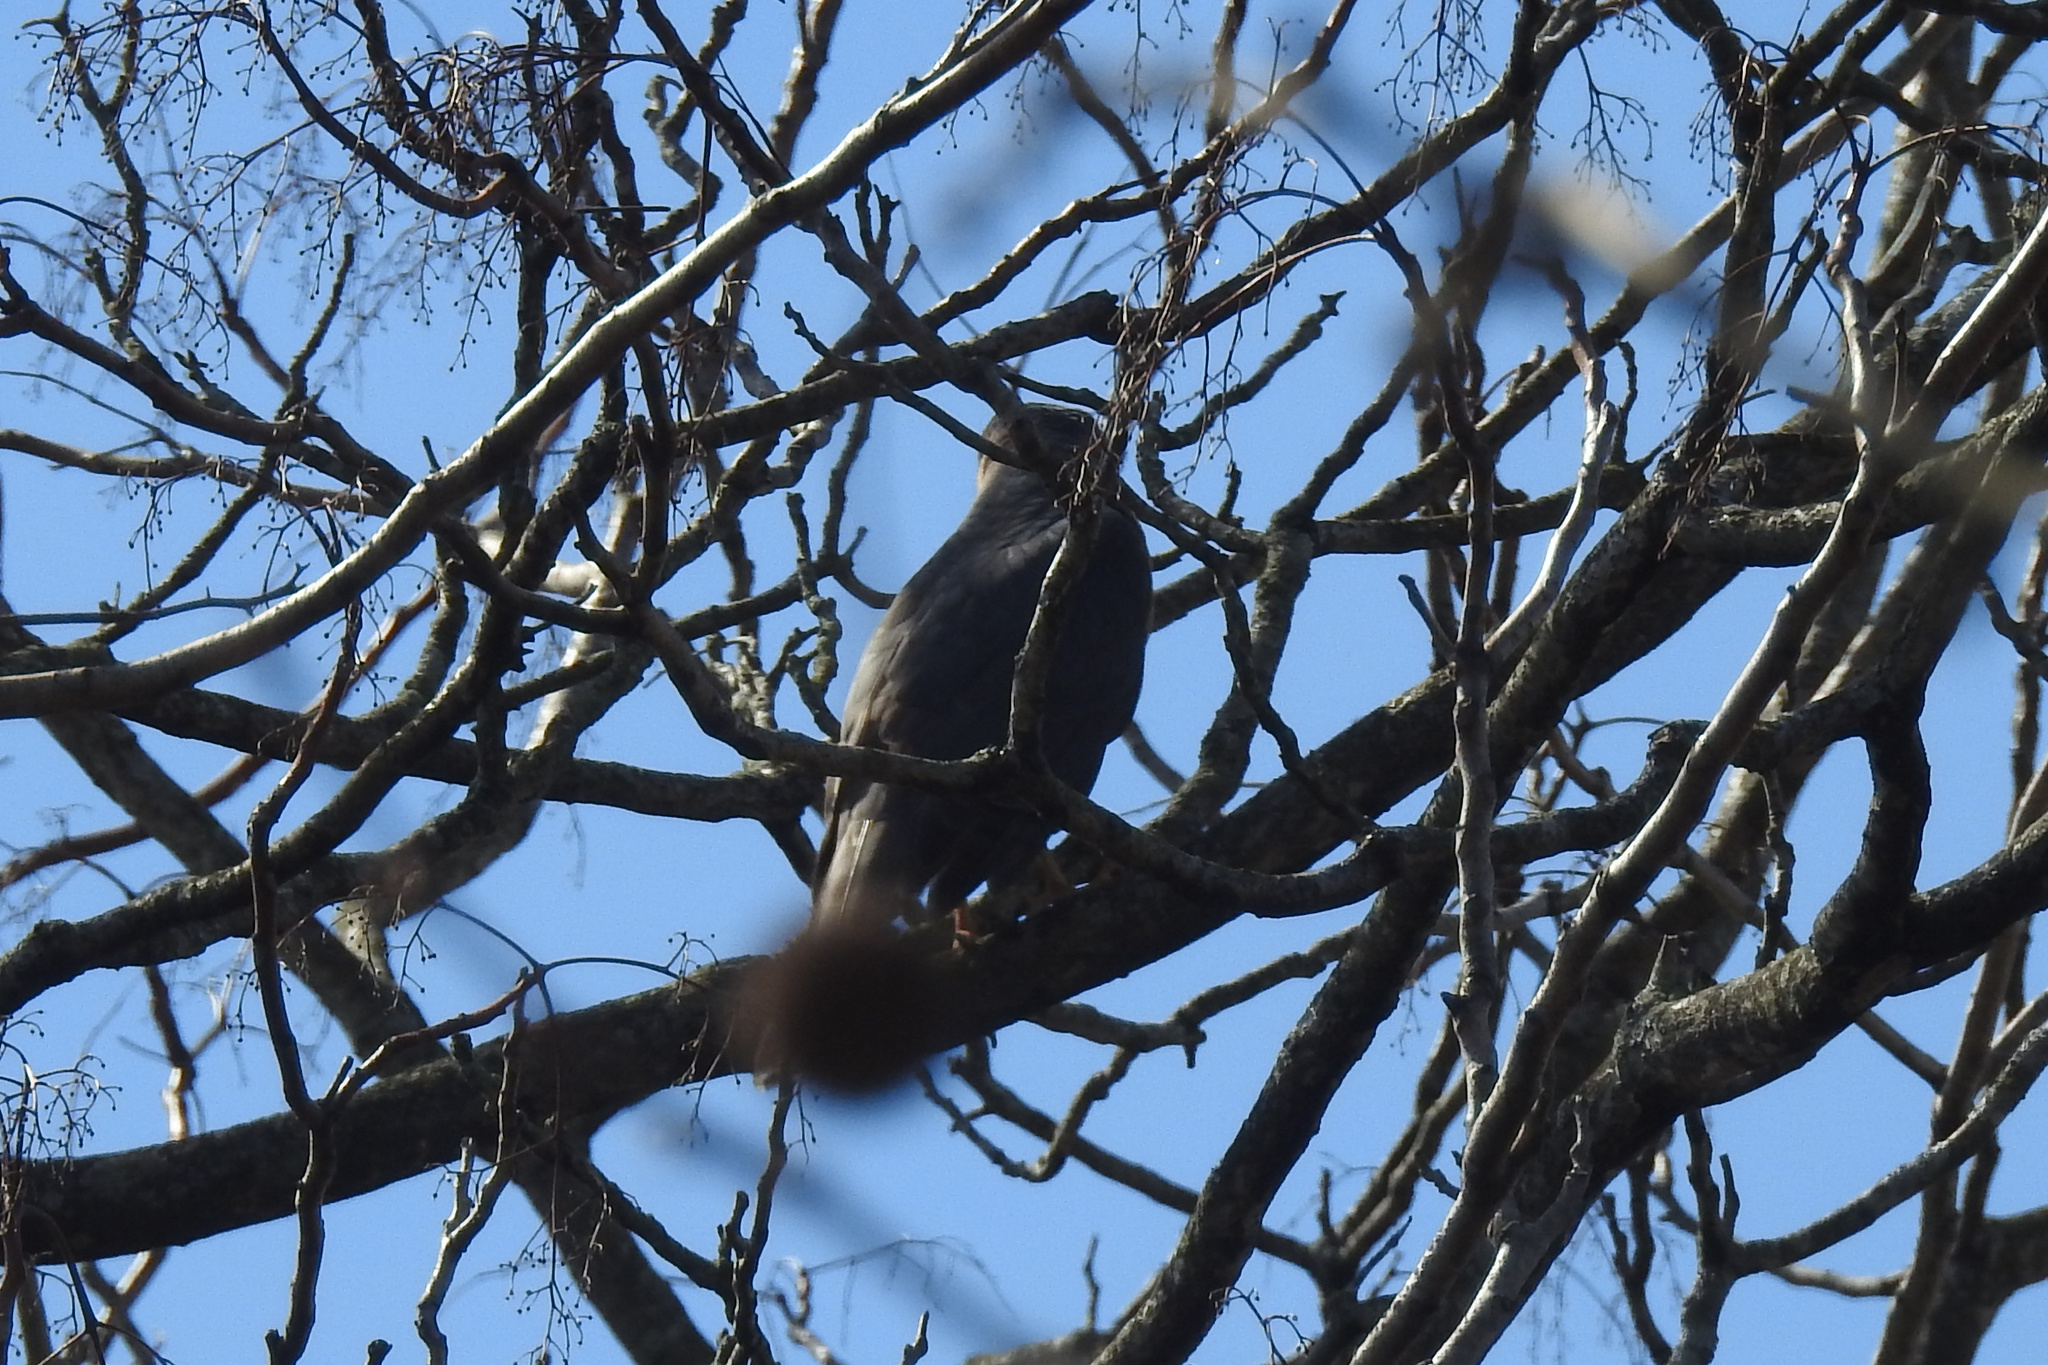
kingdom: Animalia
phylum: Chordata
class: Aves
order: Accipitriformes
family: Accipitridae
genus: Accipiter
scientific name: Accipiter cooperii
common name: Cooper's hawk
